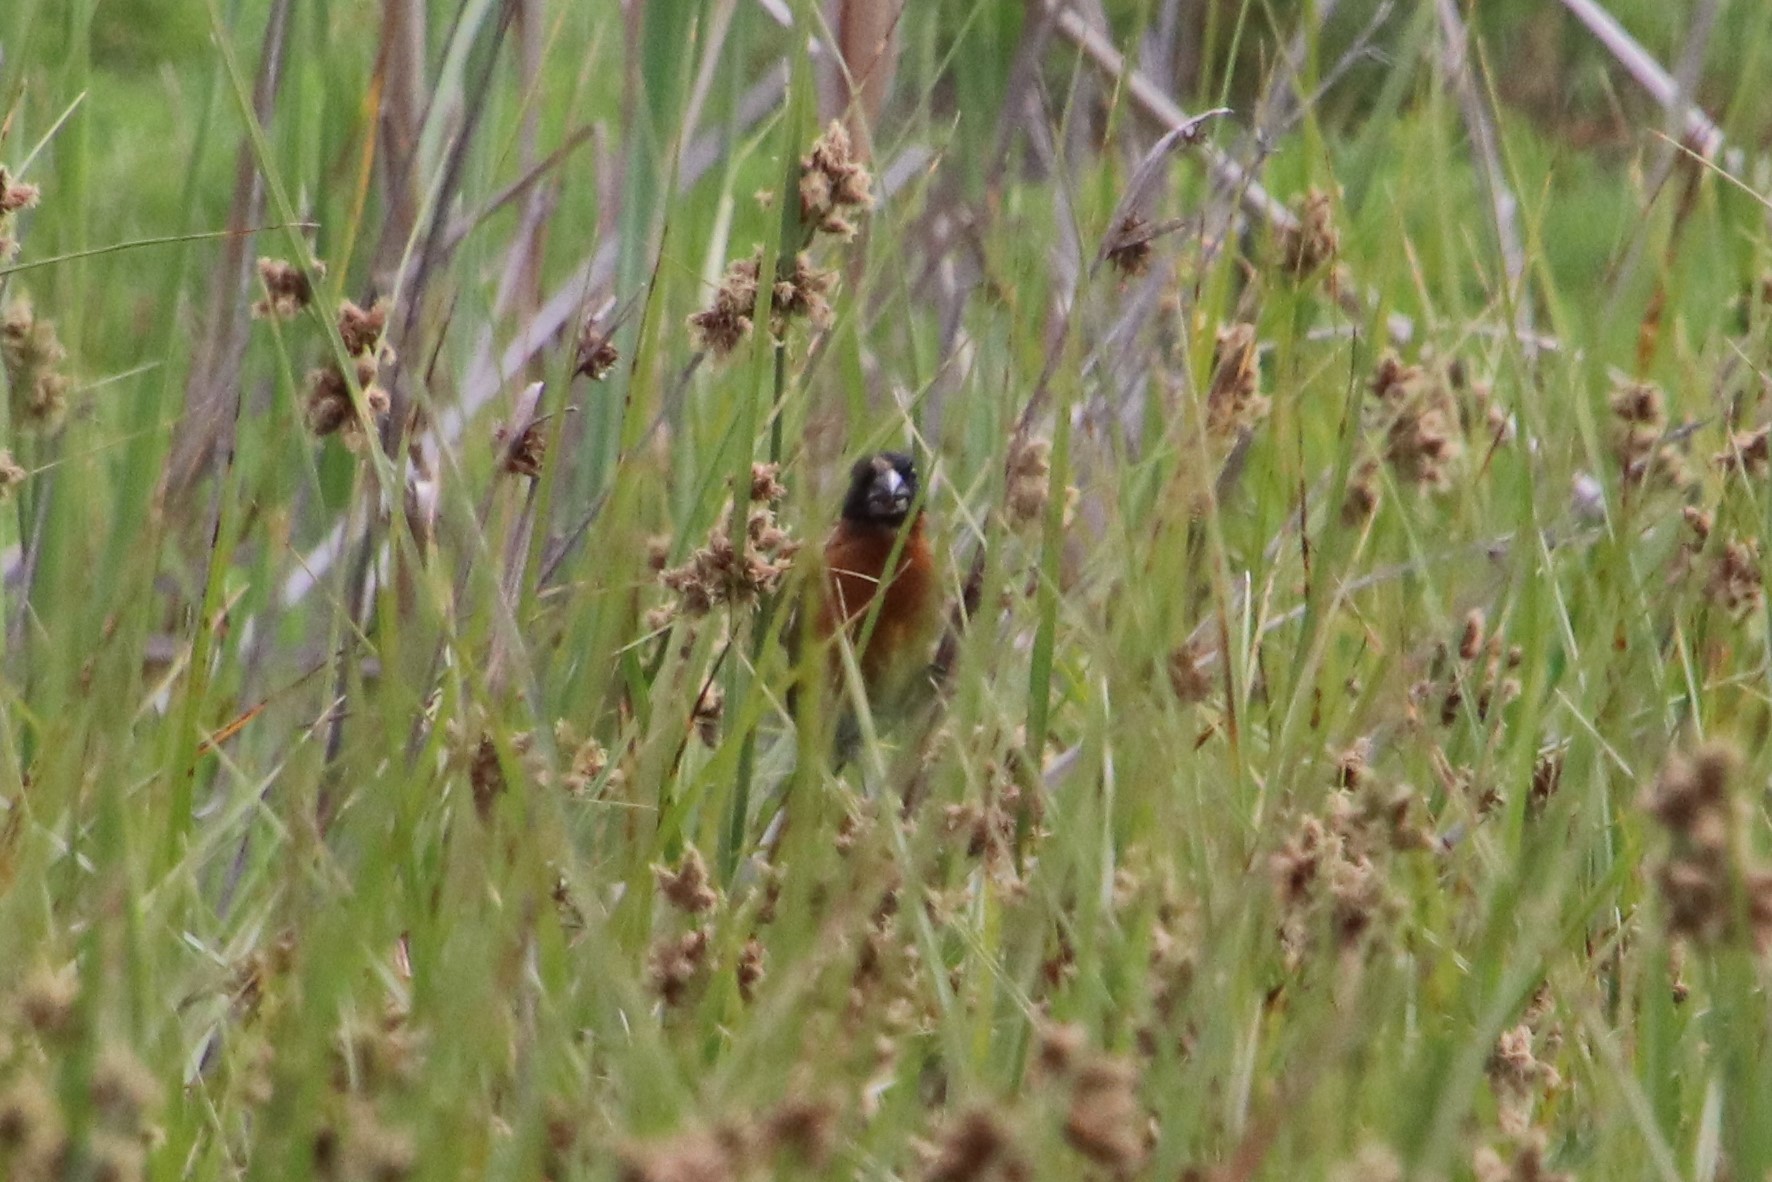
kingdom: Animalia
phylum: Chordata
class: Aves
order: Passeriformes
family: Cardinalidae
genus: Pheucticus
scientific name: Pheucticus melanocephalus
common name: Black-headed grosbeak
